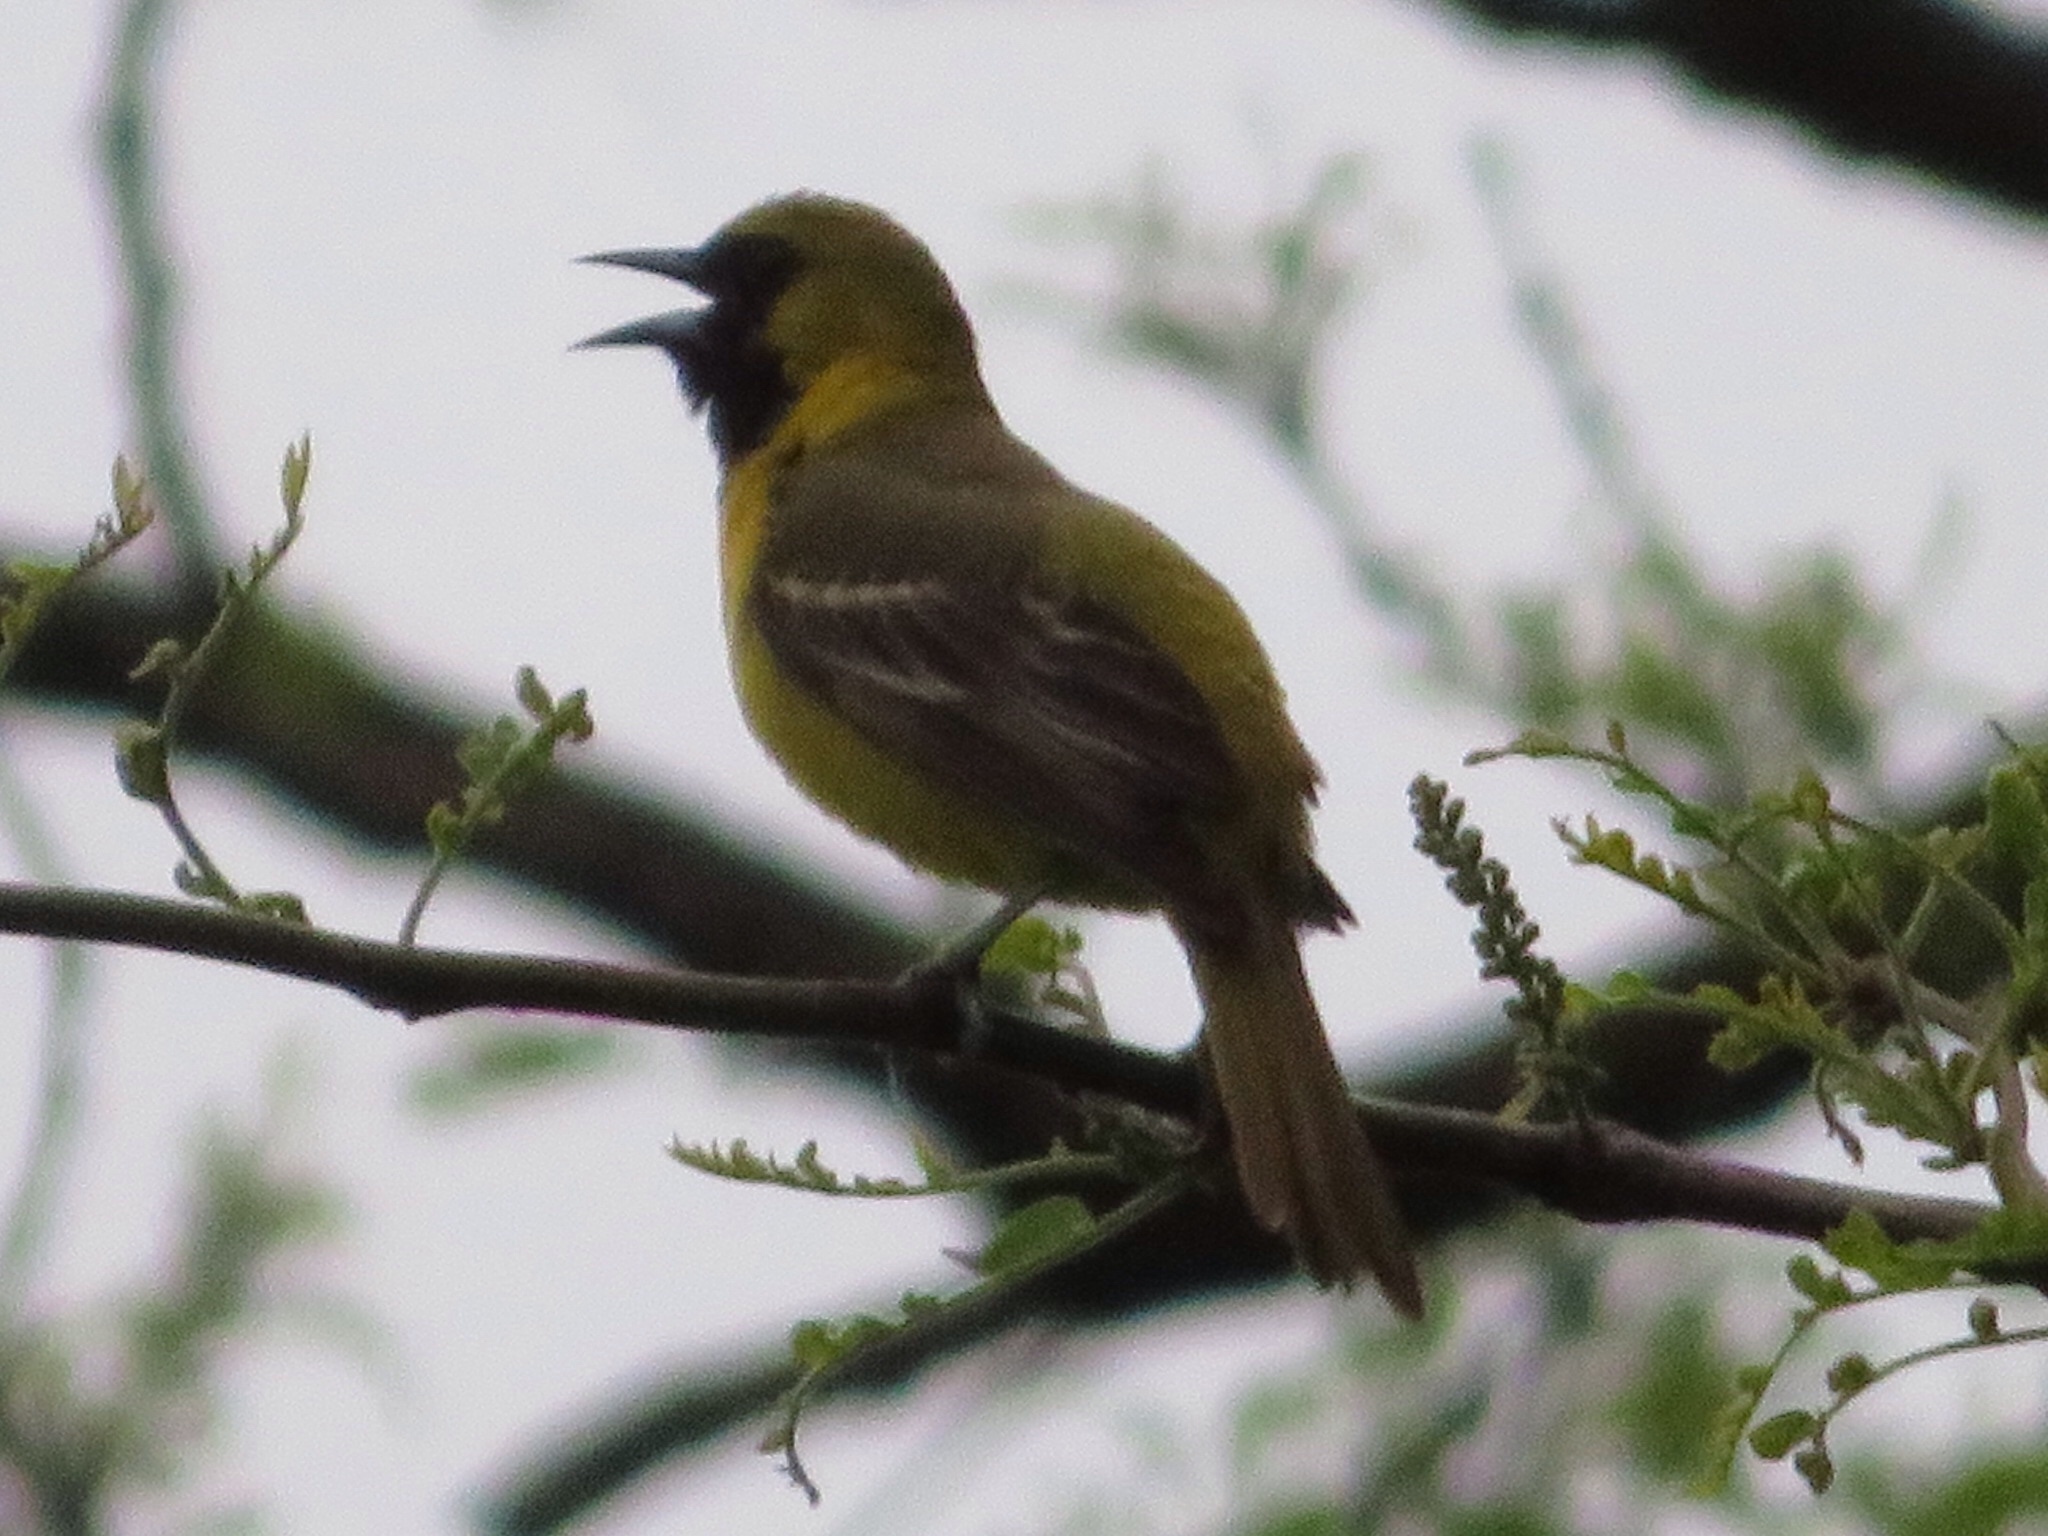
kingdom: Animalia
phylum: Chordata
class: Aves
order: Passeriformes
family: Icteridae
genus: Icterus
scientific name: Icterus spurius
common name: Orchard oriole
